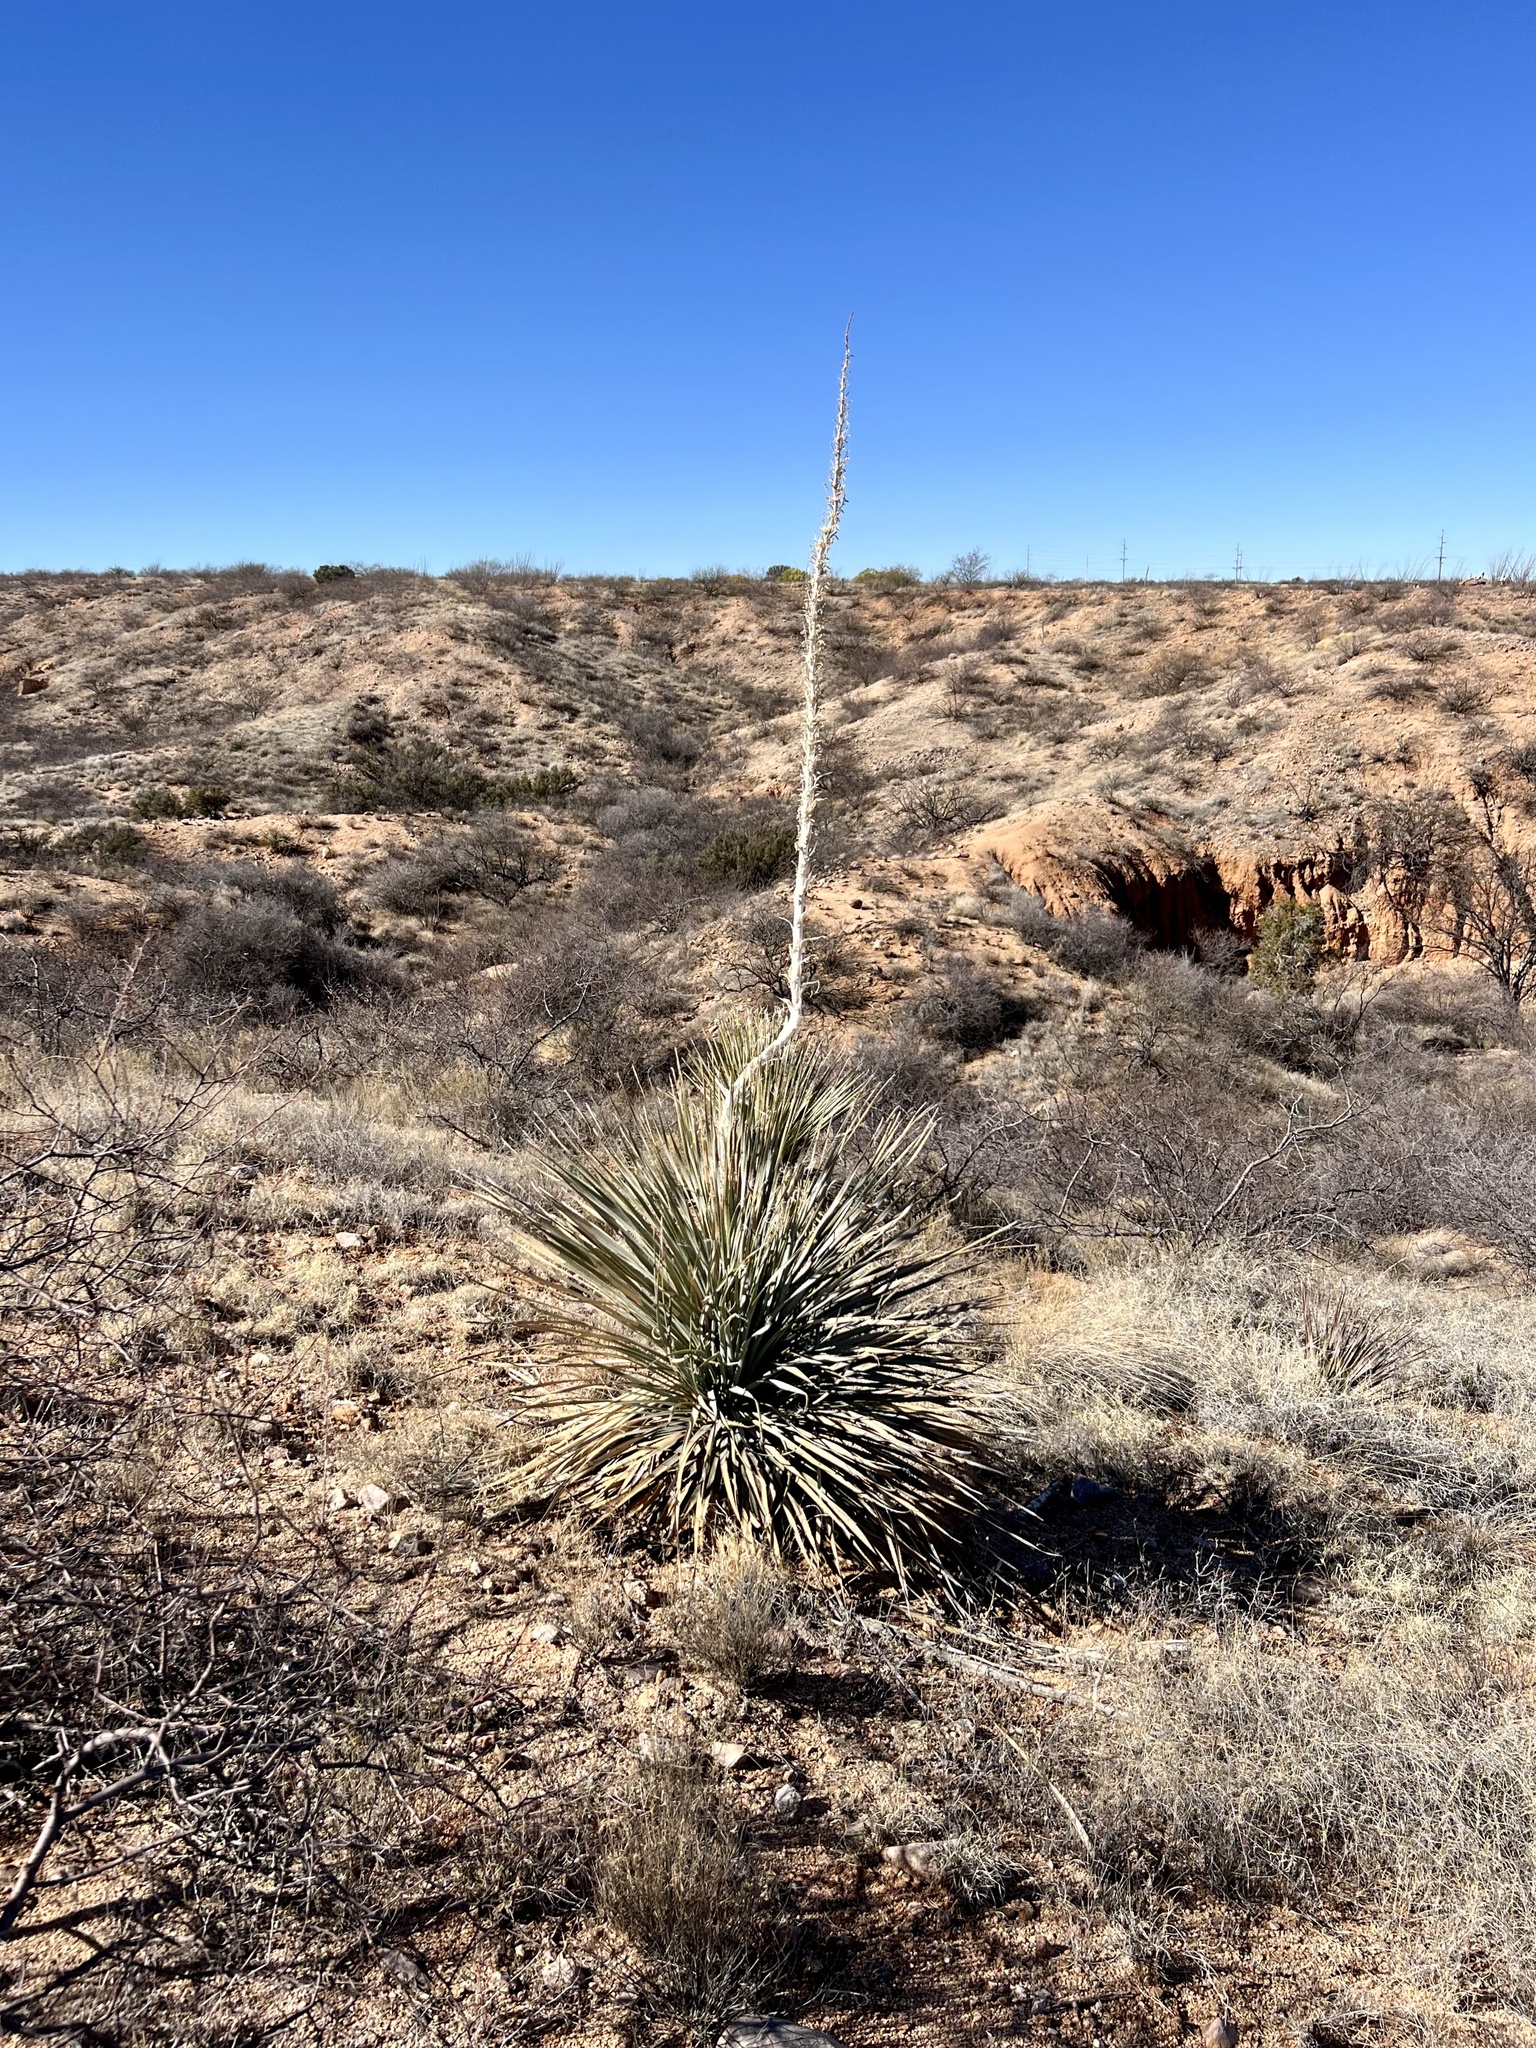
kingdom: Plantae
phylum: Tracheophyta
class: Liliopsida
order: Asparagales
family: Asparagaceae
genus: Dasylirion
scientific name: Dasylirion wheeleri
